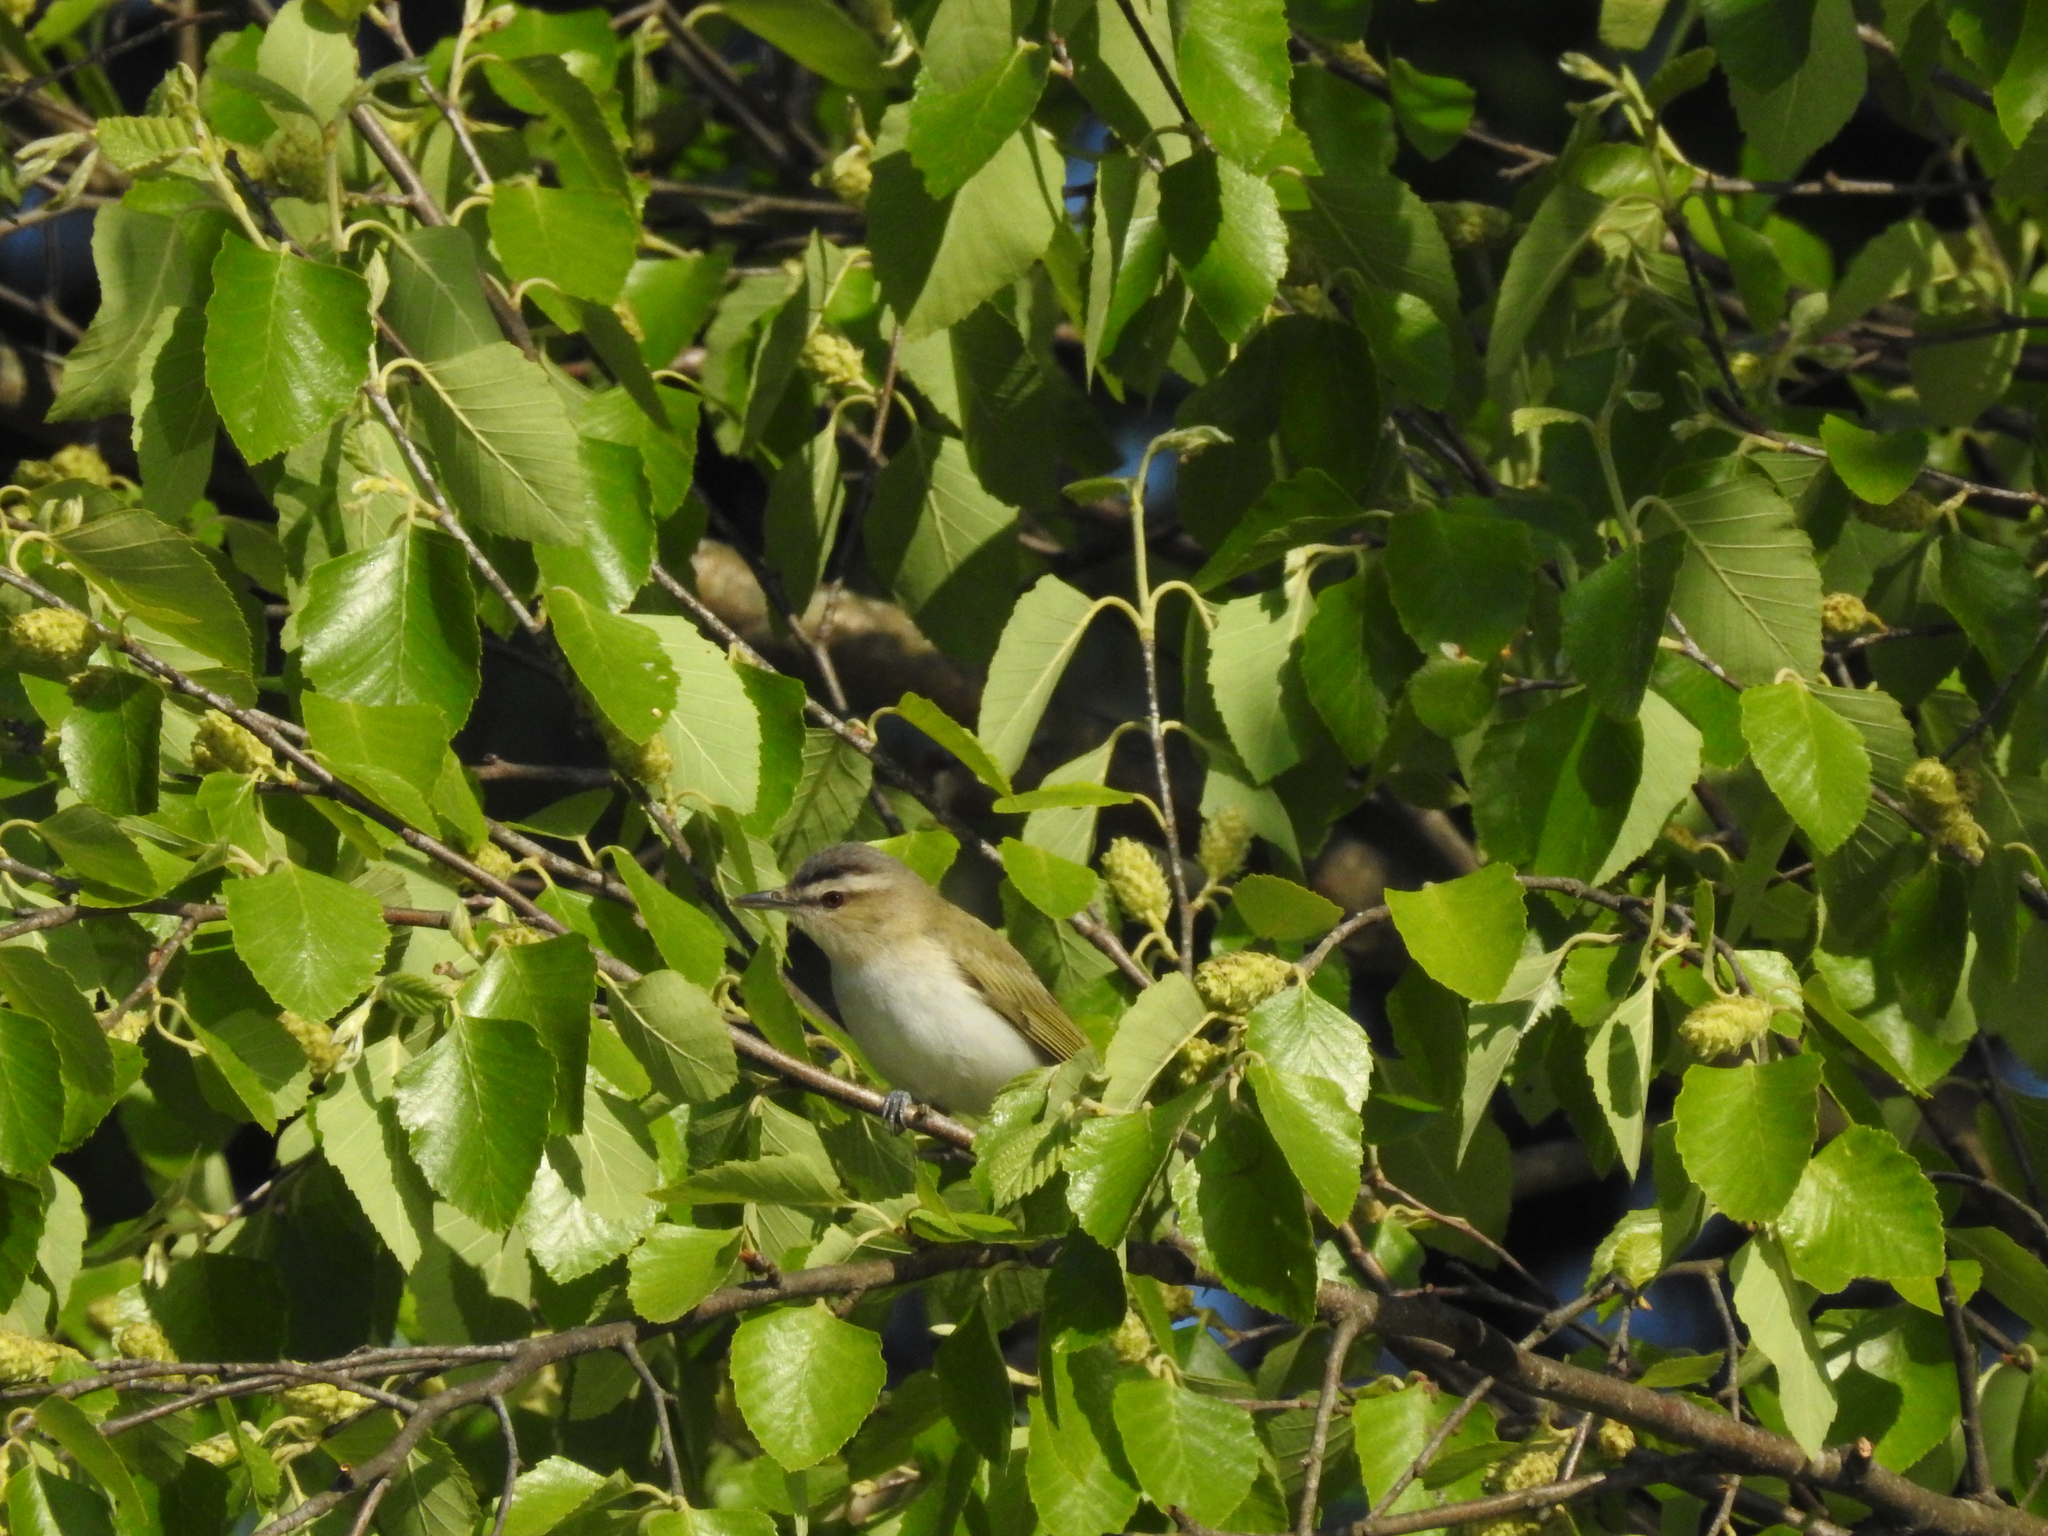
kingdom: Animalia
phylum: Chordata
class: Aves
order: Passeriformes
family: Vireonidae
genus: Vireo
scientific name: Vireo olivaceus
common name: Red-eyed vireo
